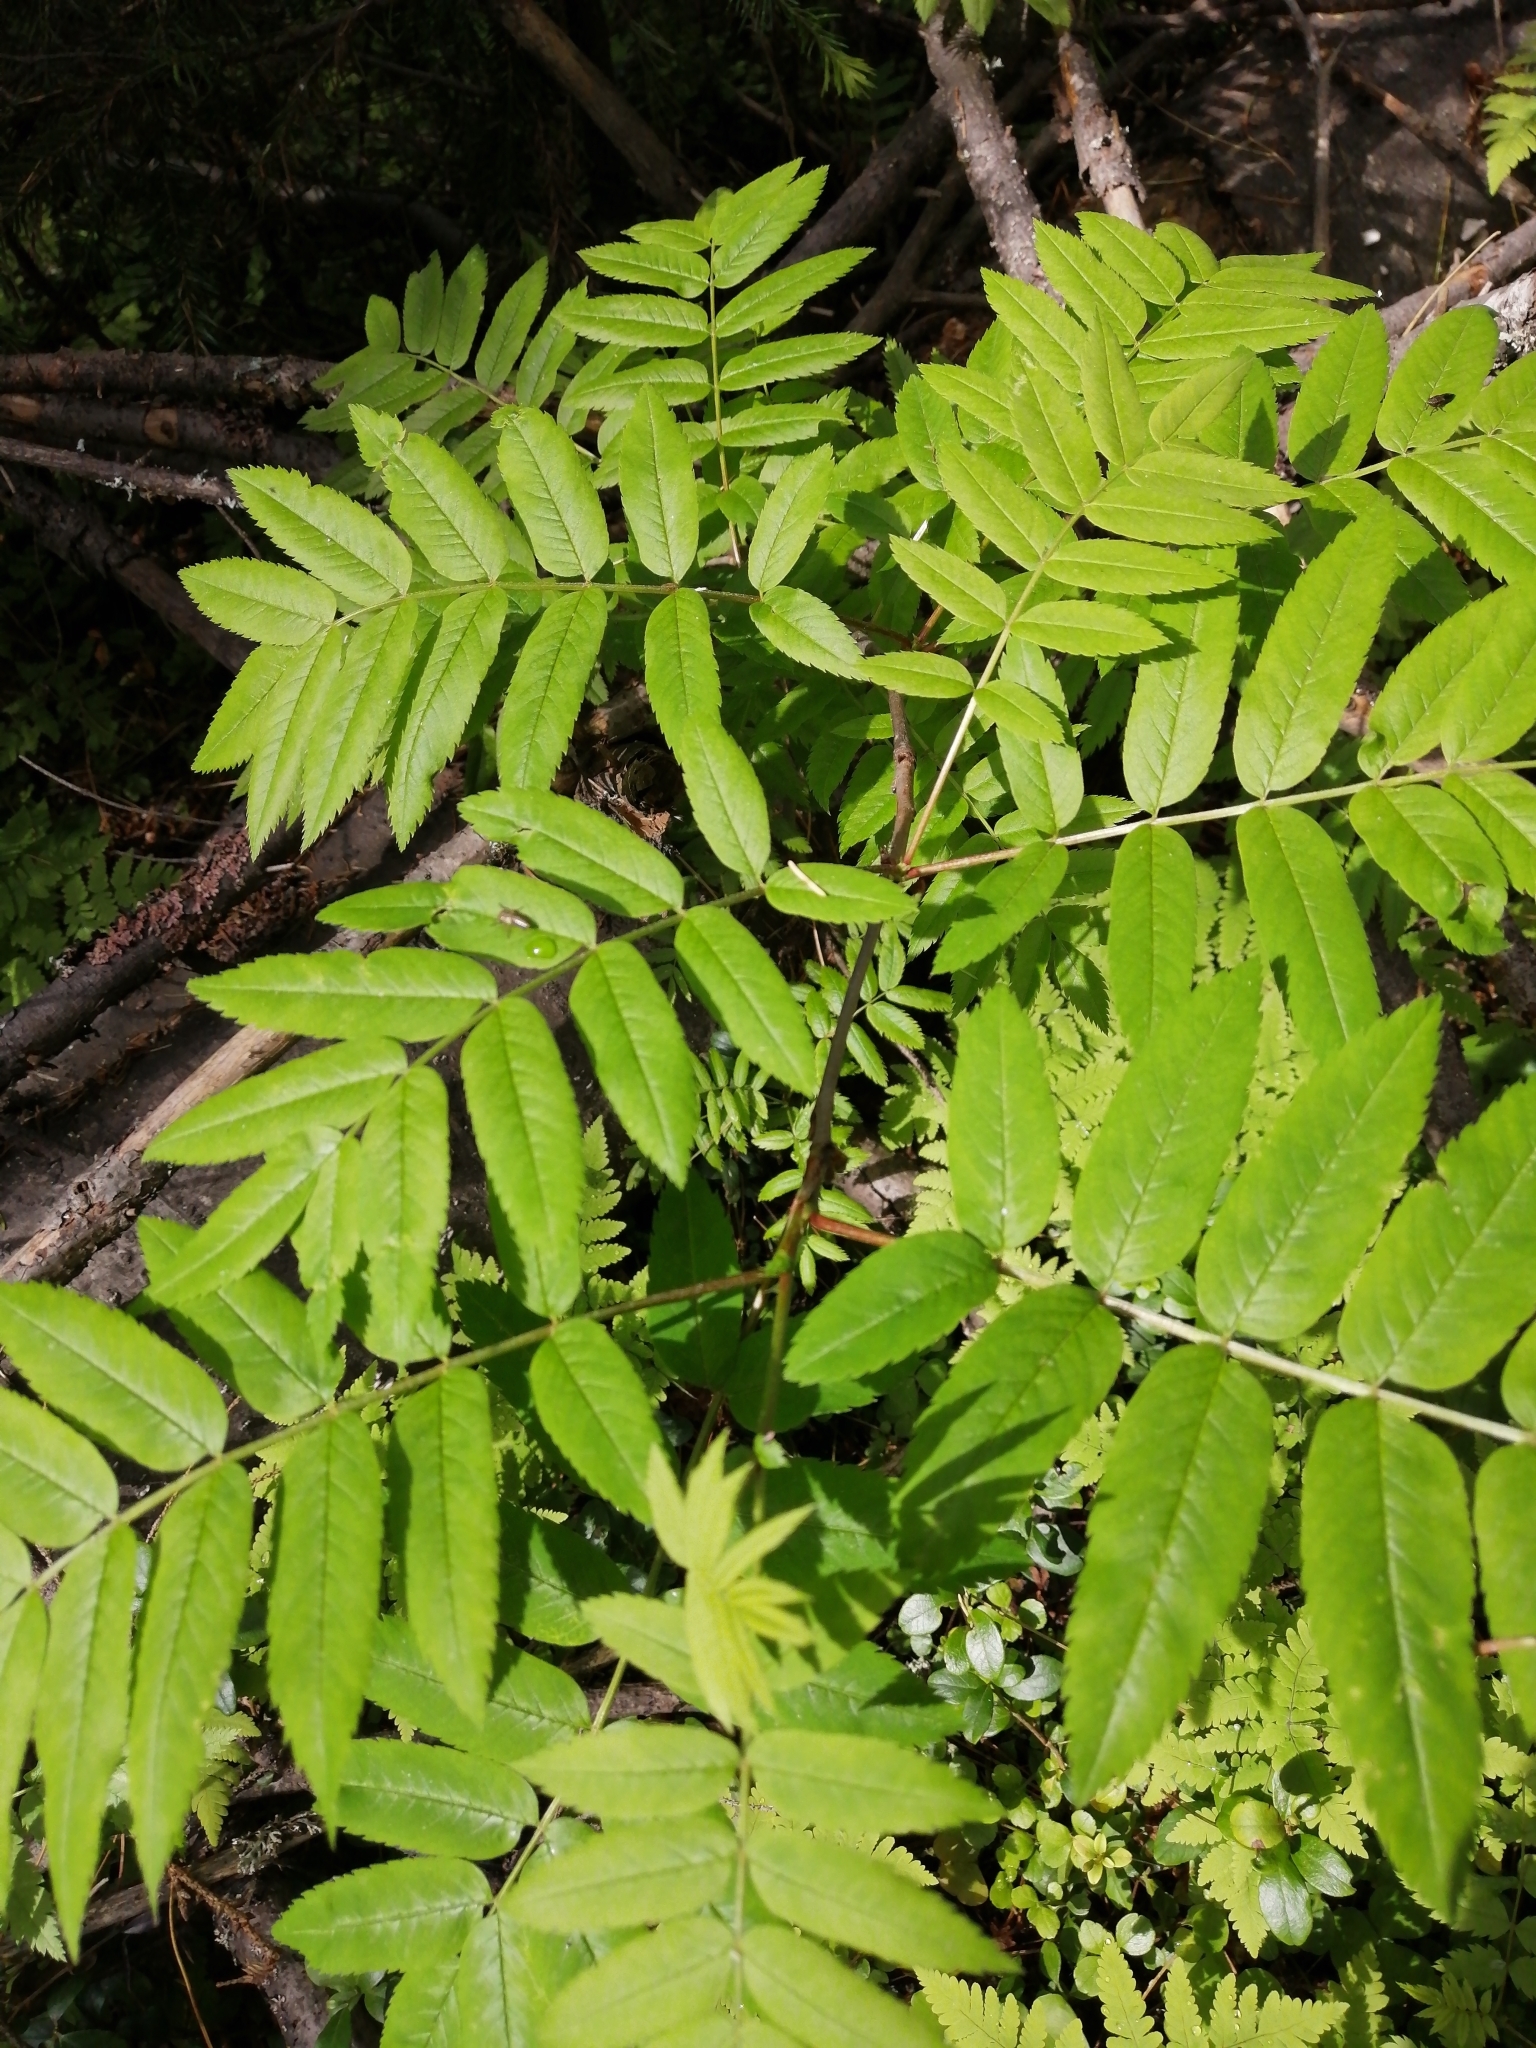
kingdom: Plantae
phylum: Tracheophyta
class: Magnoliopsida
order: Rosales
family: Rosaceae
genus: Sorbus
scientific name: Sorbus aucuparia
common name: Rowan
